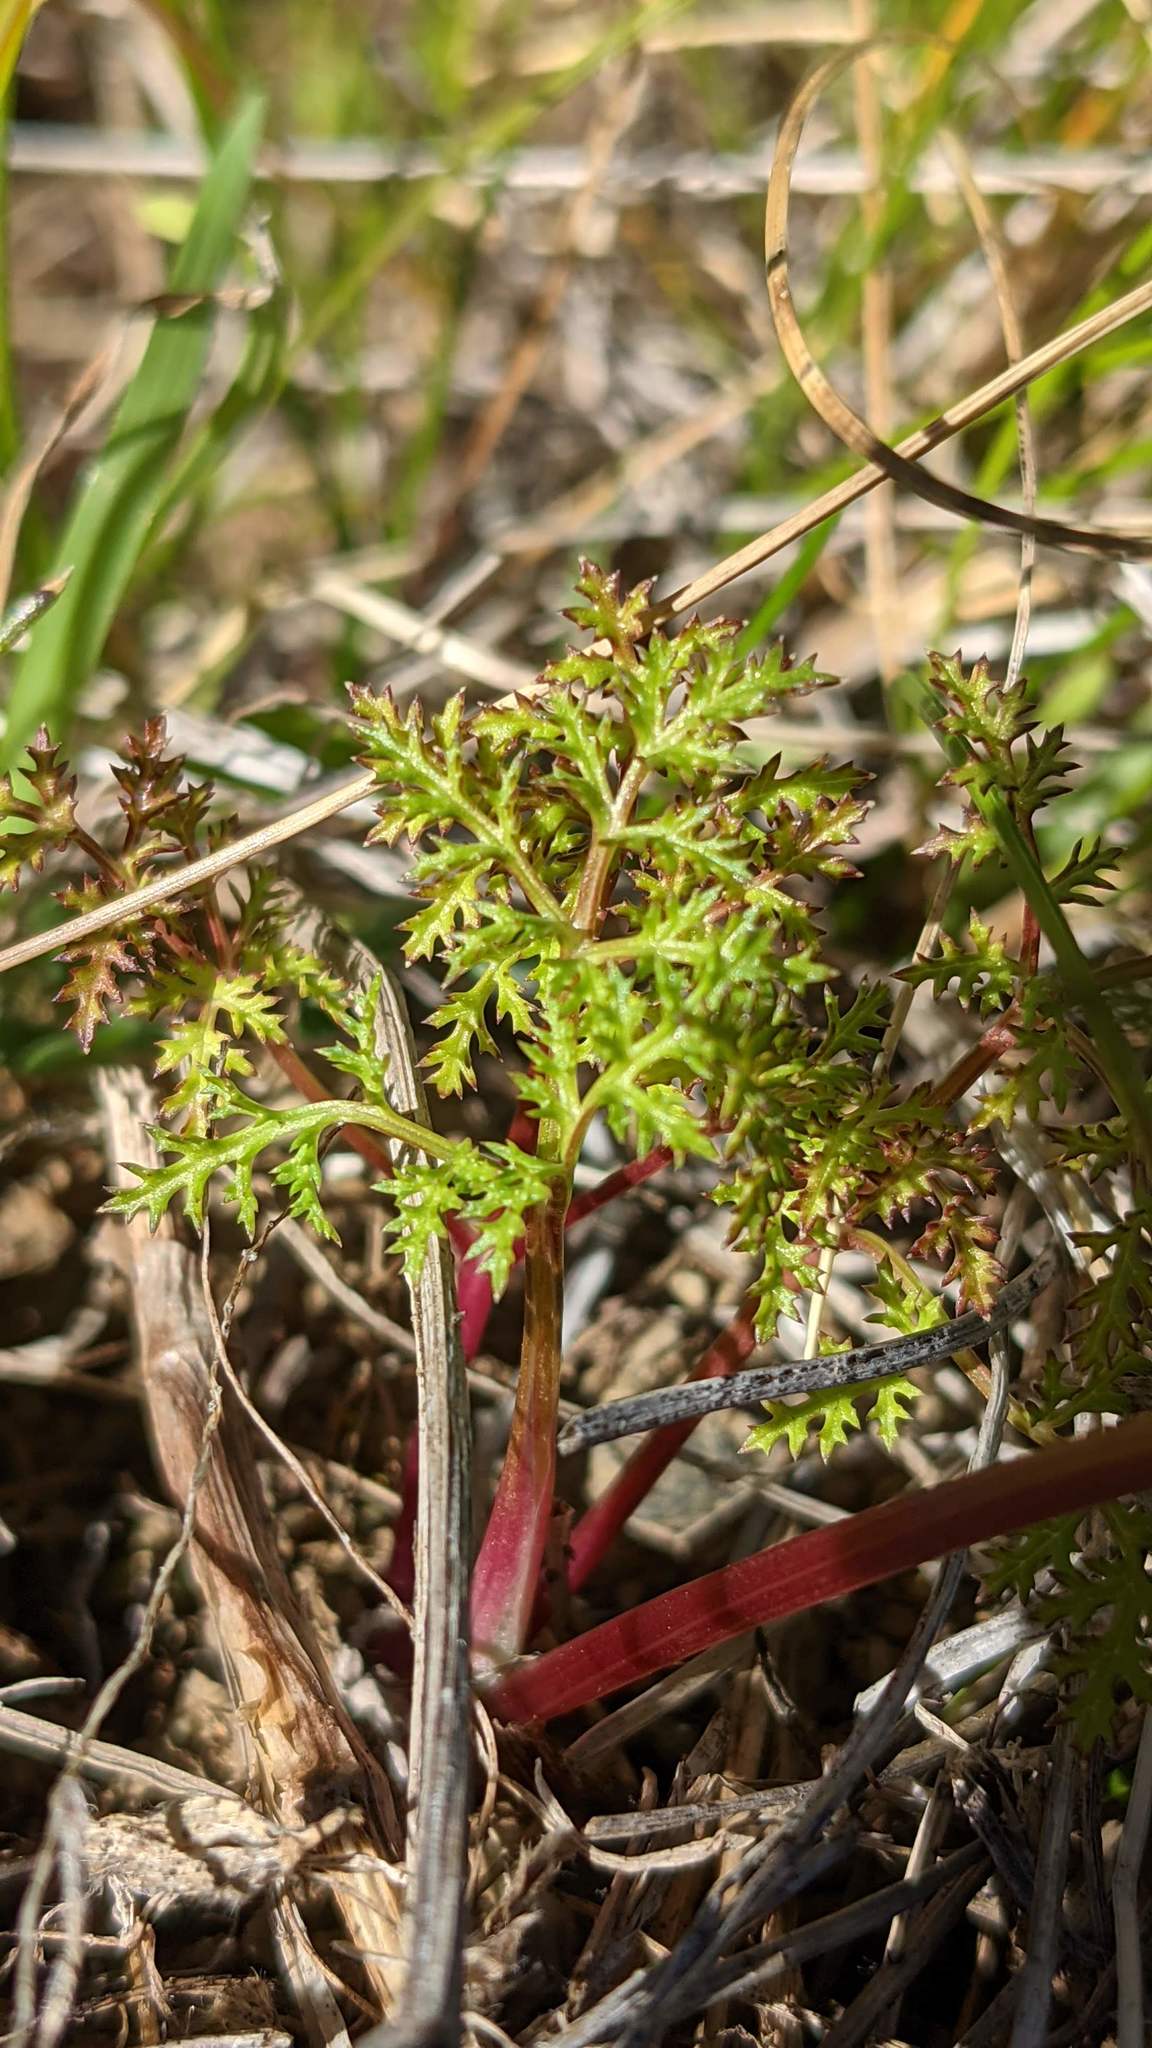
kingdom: Plantae
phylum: Tracheophyta
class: Magnoliopsida
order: Apiales
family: Apiaceae
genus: Sanicula
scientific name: Sanicula tuberosa
